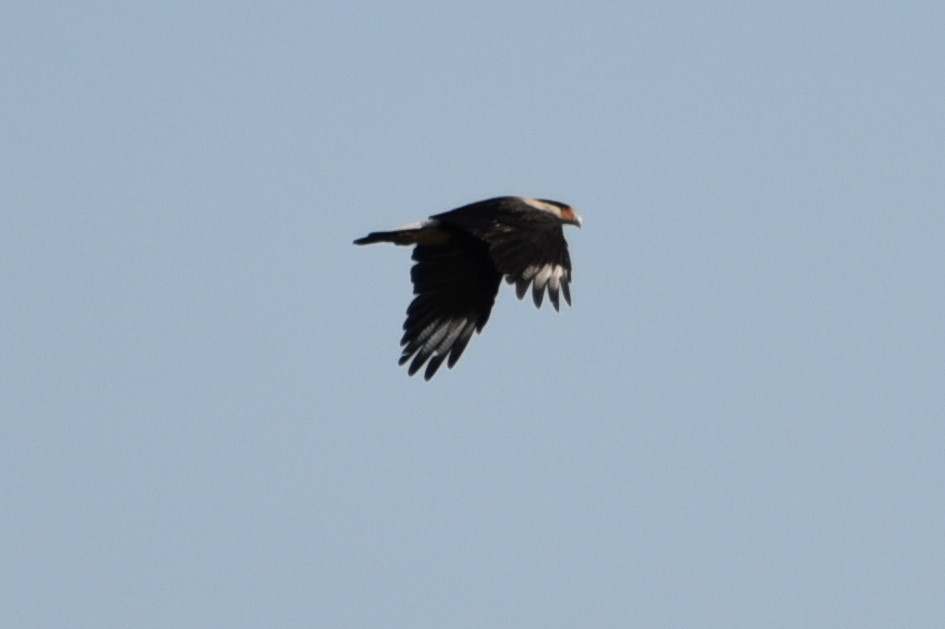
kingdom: Animalia
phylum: Chordata
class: Aves
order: Falconiformes
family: Falconidae
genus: Caracara
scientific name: Caracara plancus
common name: Southern caracara
